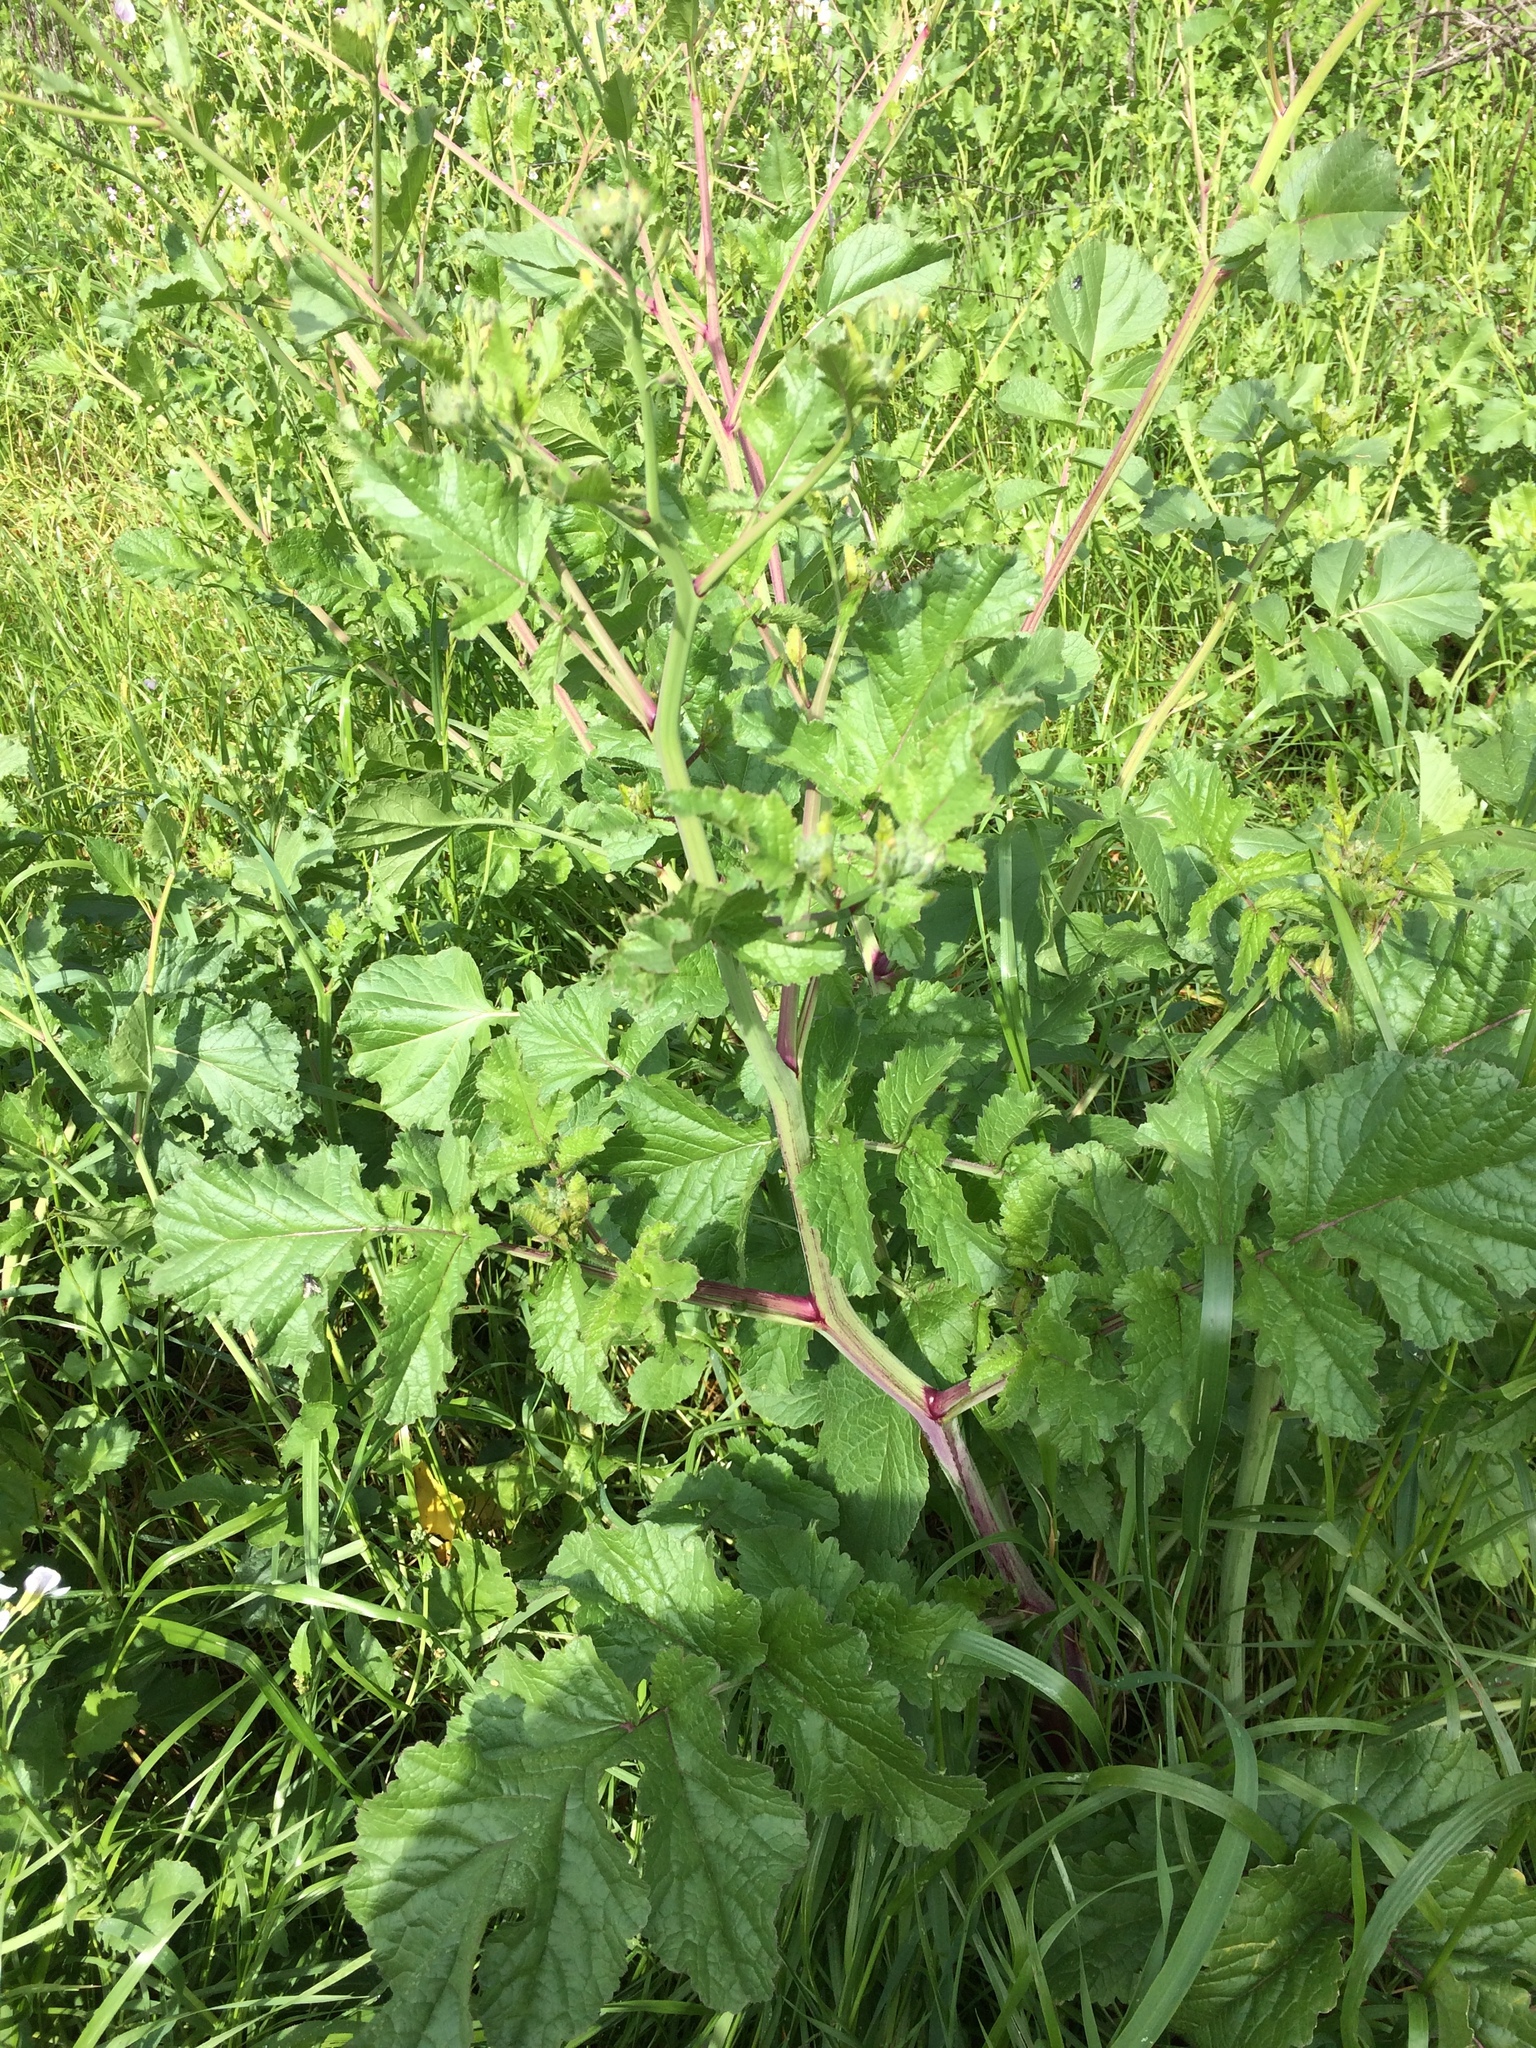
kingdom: Plantae
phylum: Tracheophyta
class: Magnoliopsida
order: Brassicales
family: Brassicaceae
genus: Raphanus
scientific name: Raphanus sativus
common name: Cultivated radish
